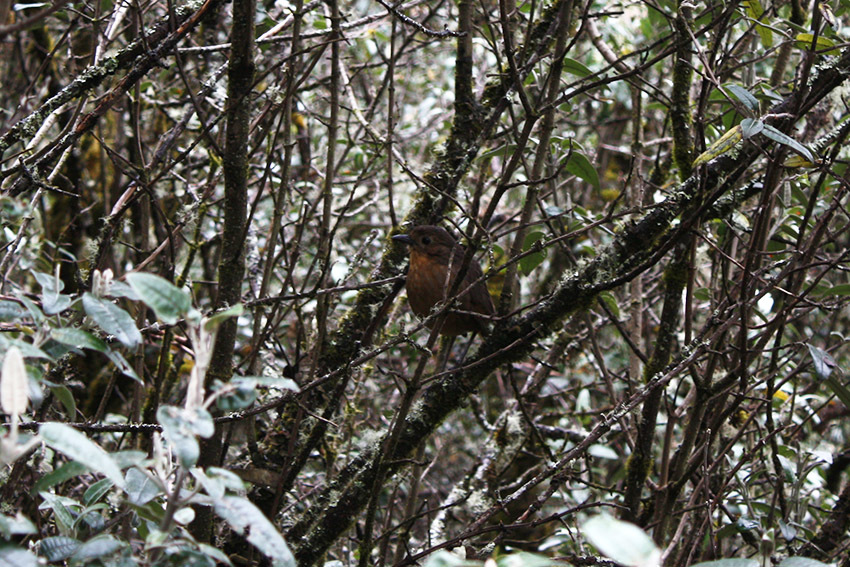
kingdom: Animalia
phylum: Chordata
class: Aves
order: Passeriformes
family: Grallariidae
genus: Grallaria
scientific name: Grallaria quitensis
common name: Tawny antpitta
